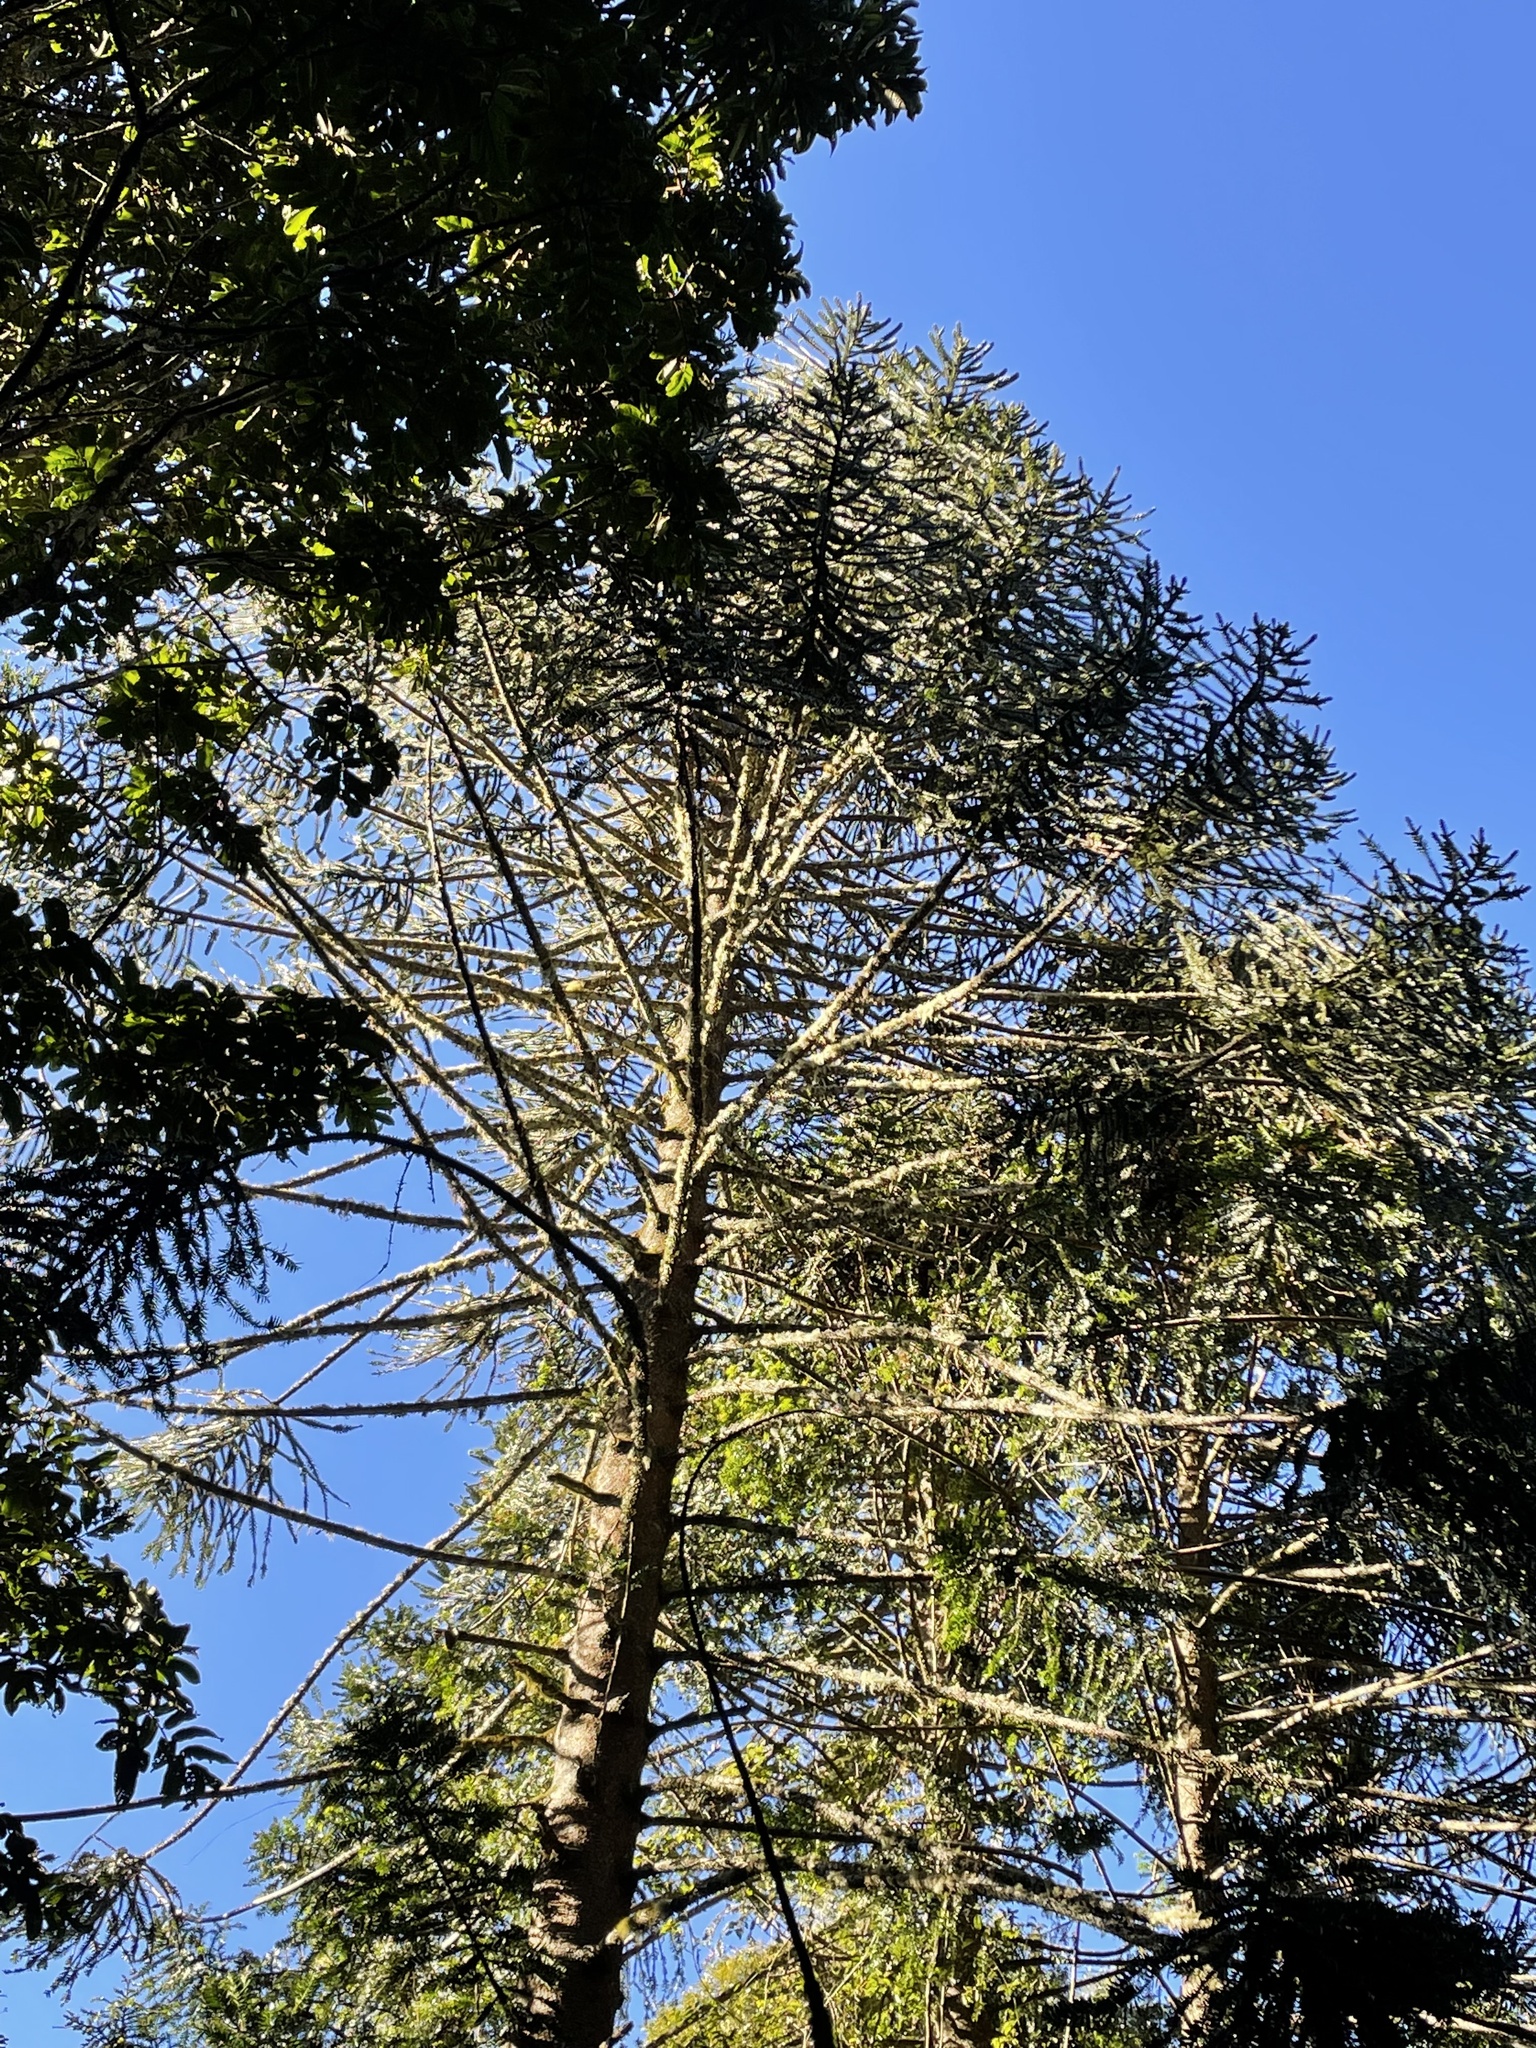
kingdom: Plantae
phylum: Tracheophyta
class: Pinopsida
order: Pinales
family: Araucariaceae
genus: Araucaria
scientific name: Araucaria bidwillii
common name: Moreton-bay-pine
